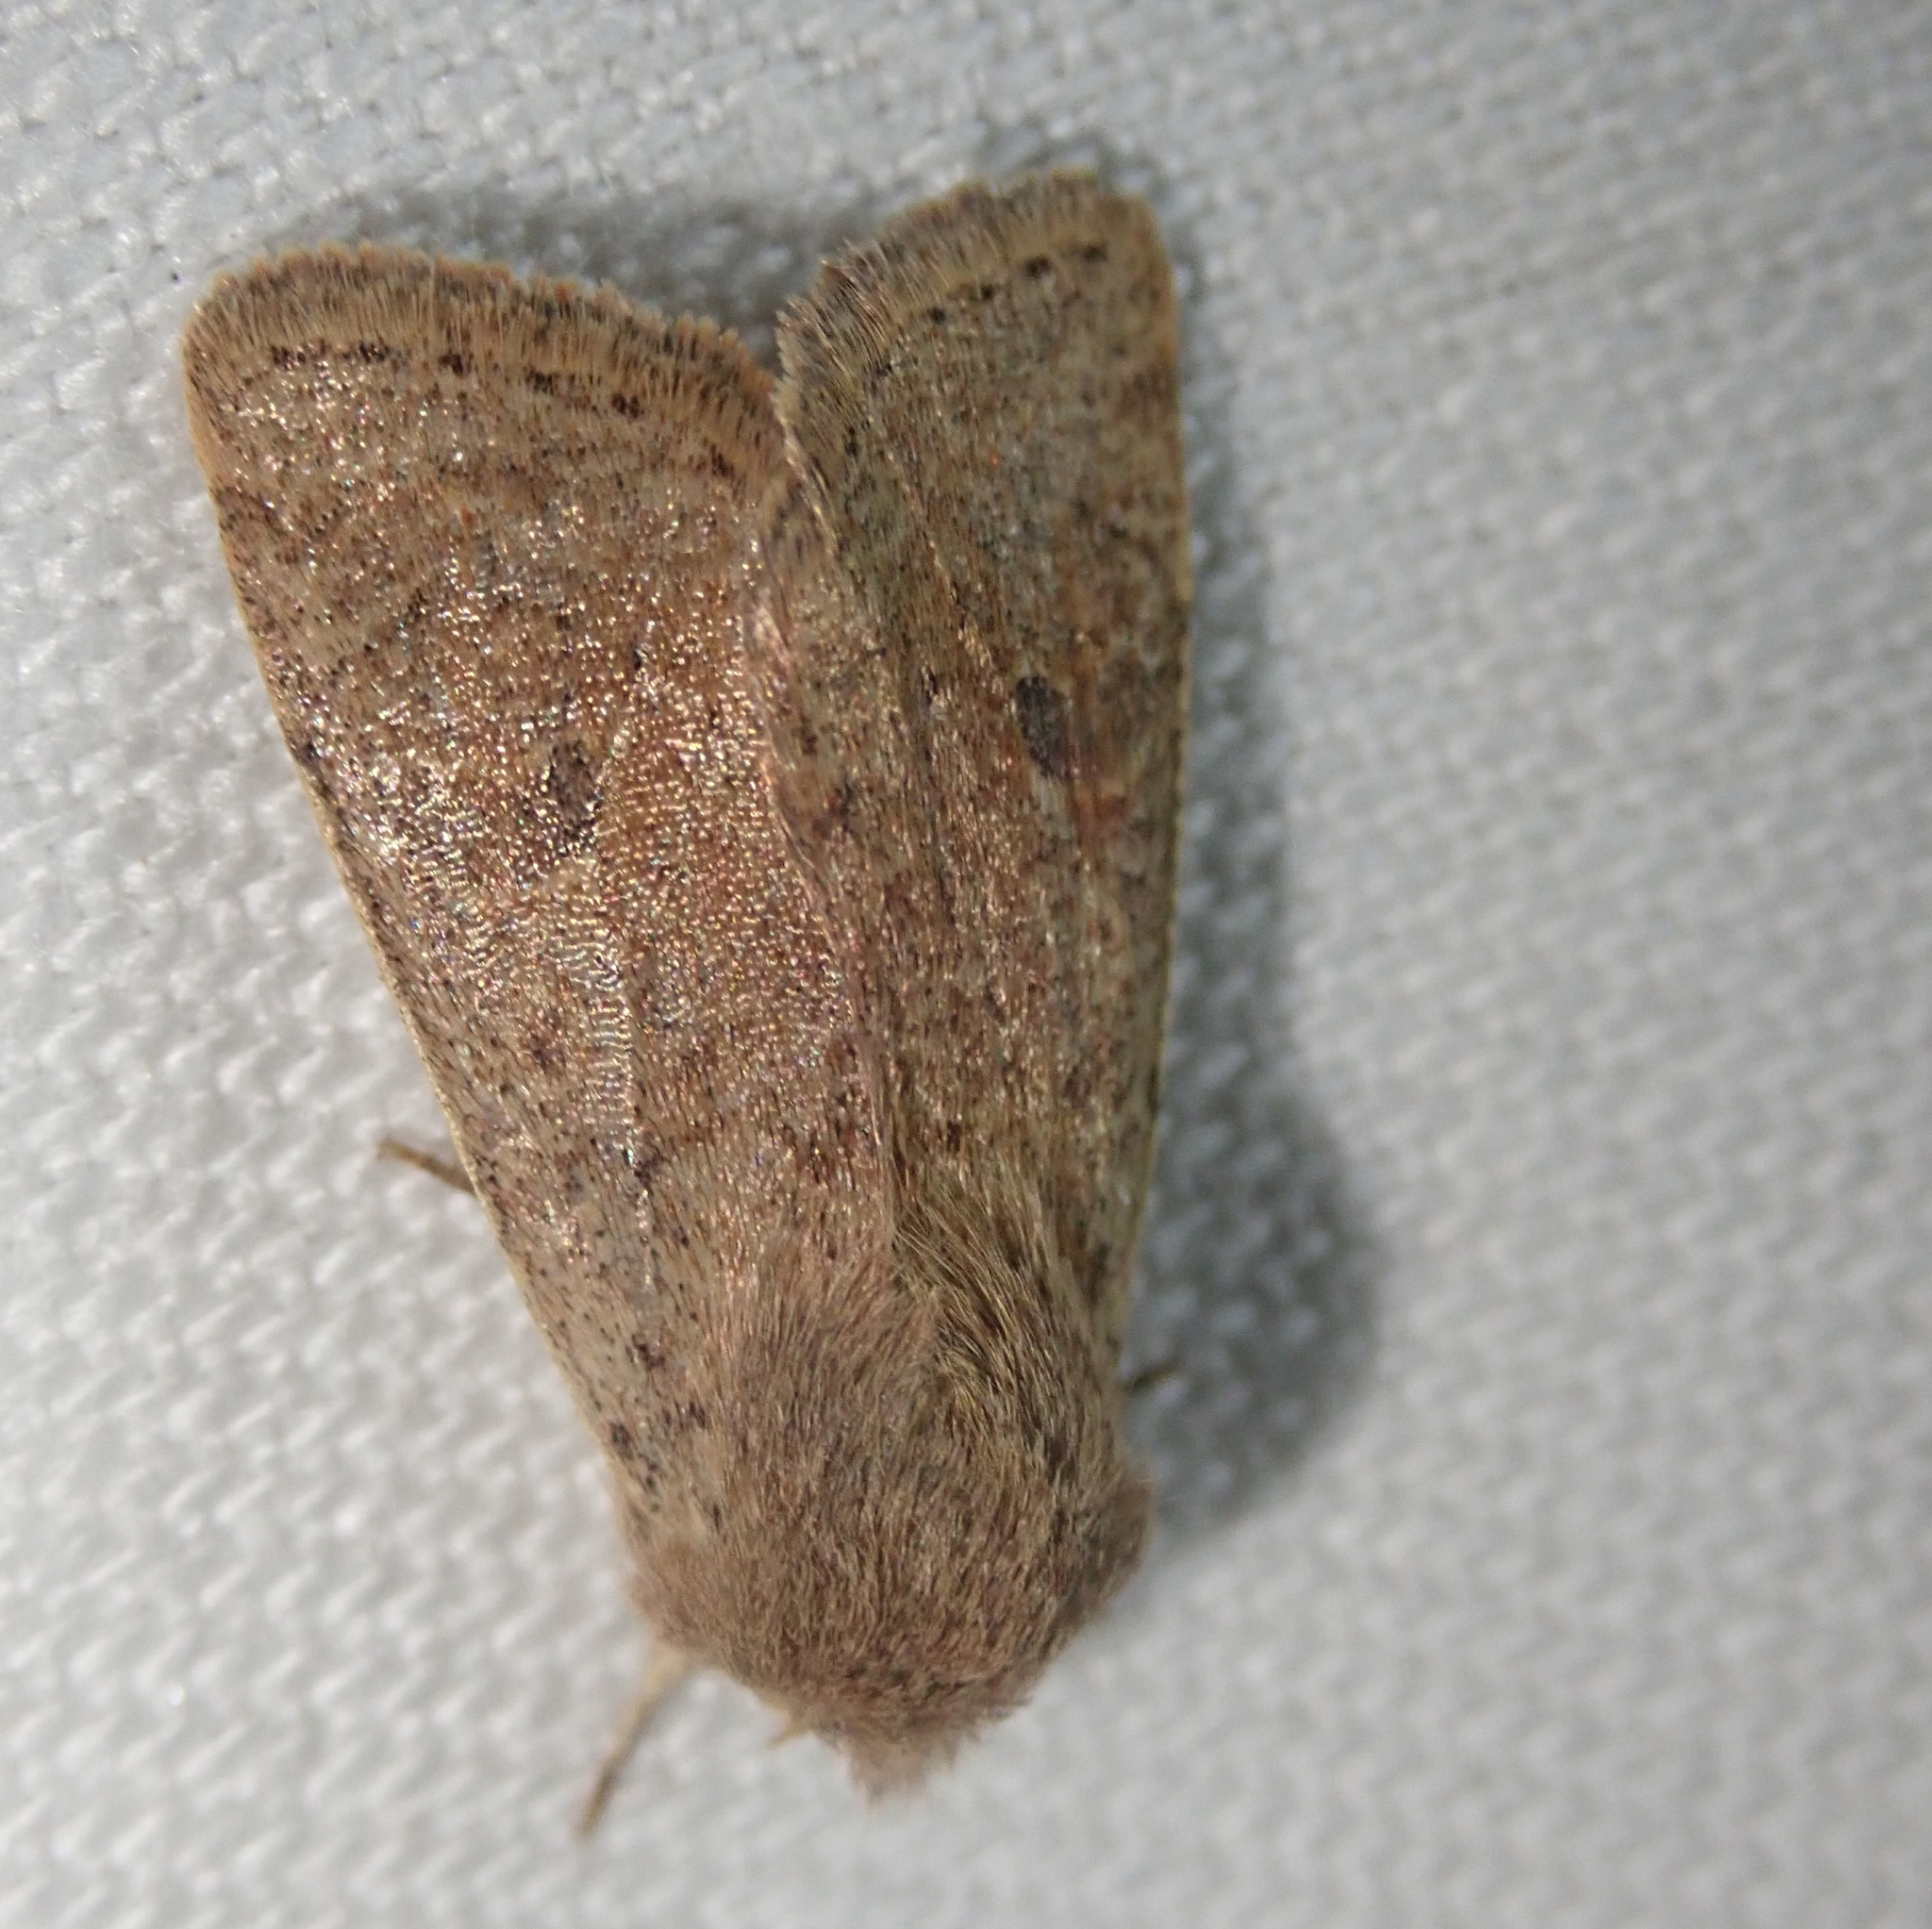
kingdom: Animalia
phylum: Arthropoda
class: Insecta
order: Lepidoptera
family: Noctuidae
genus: Orthosia
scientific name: Orthosia cruda
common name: Small quaker
